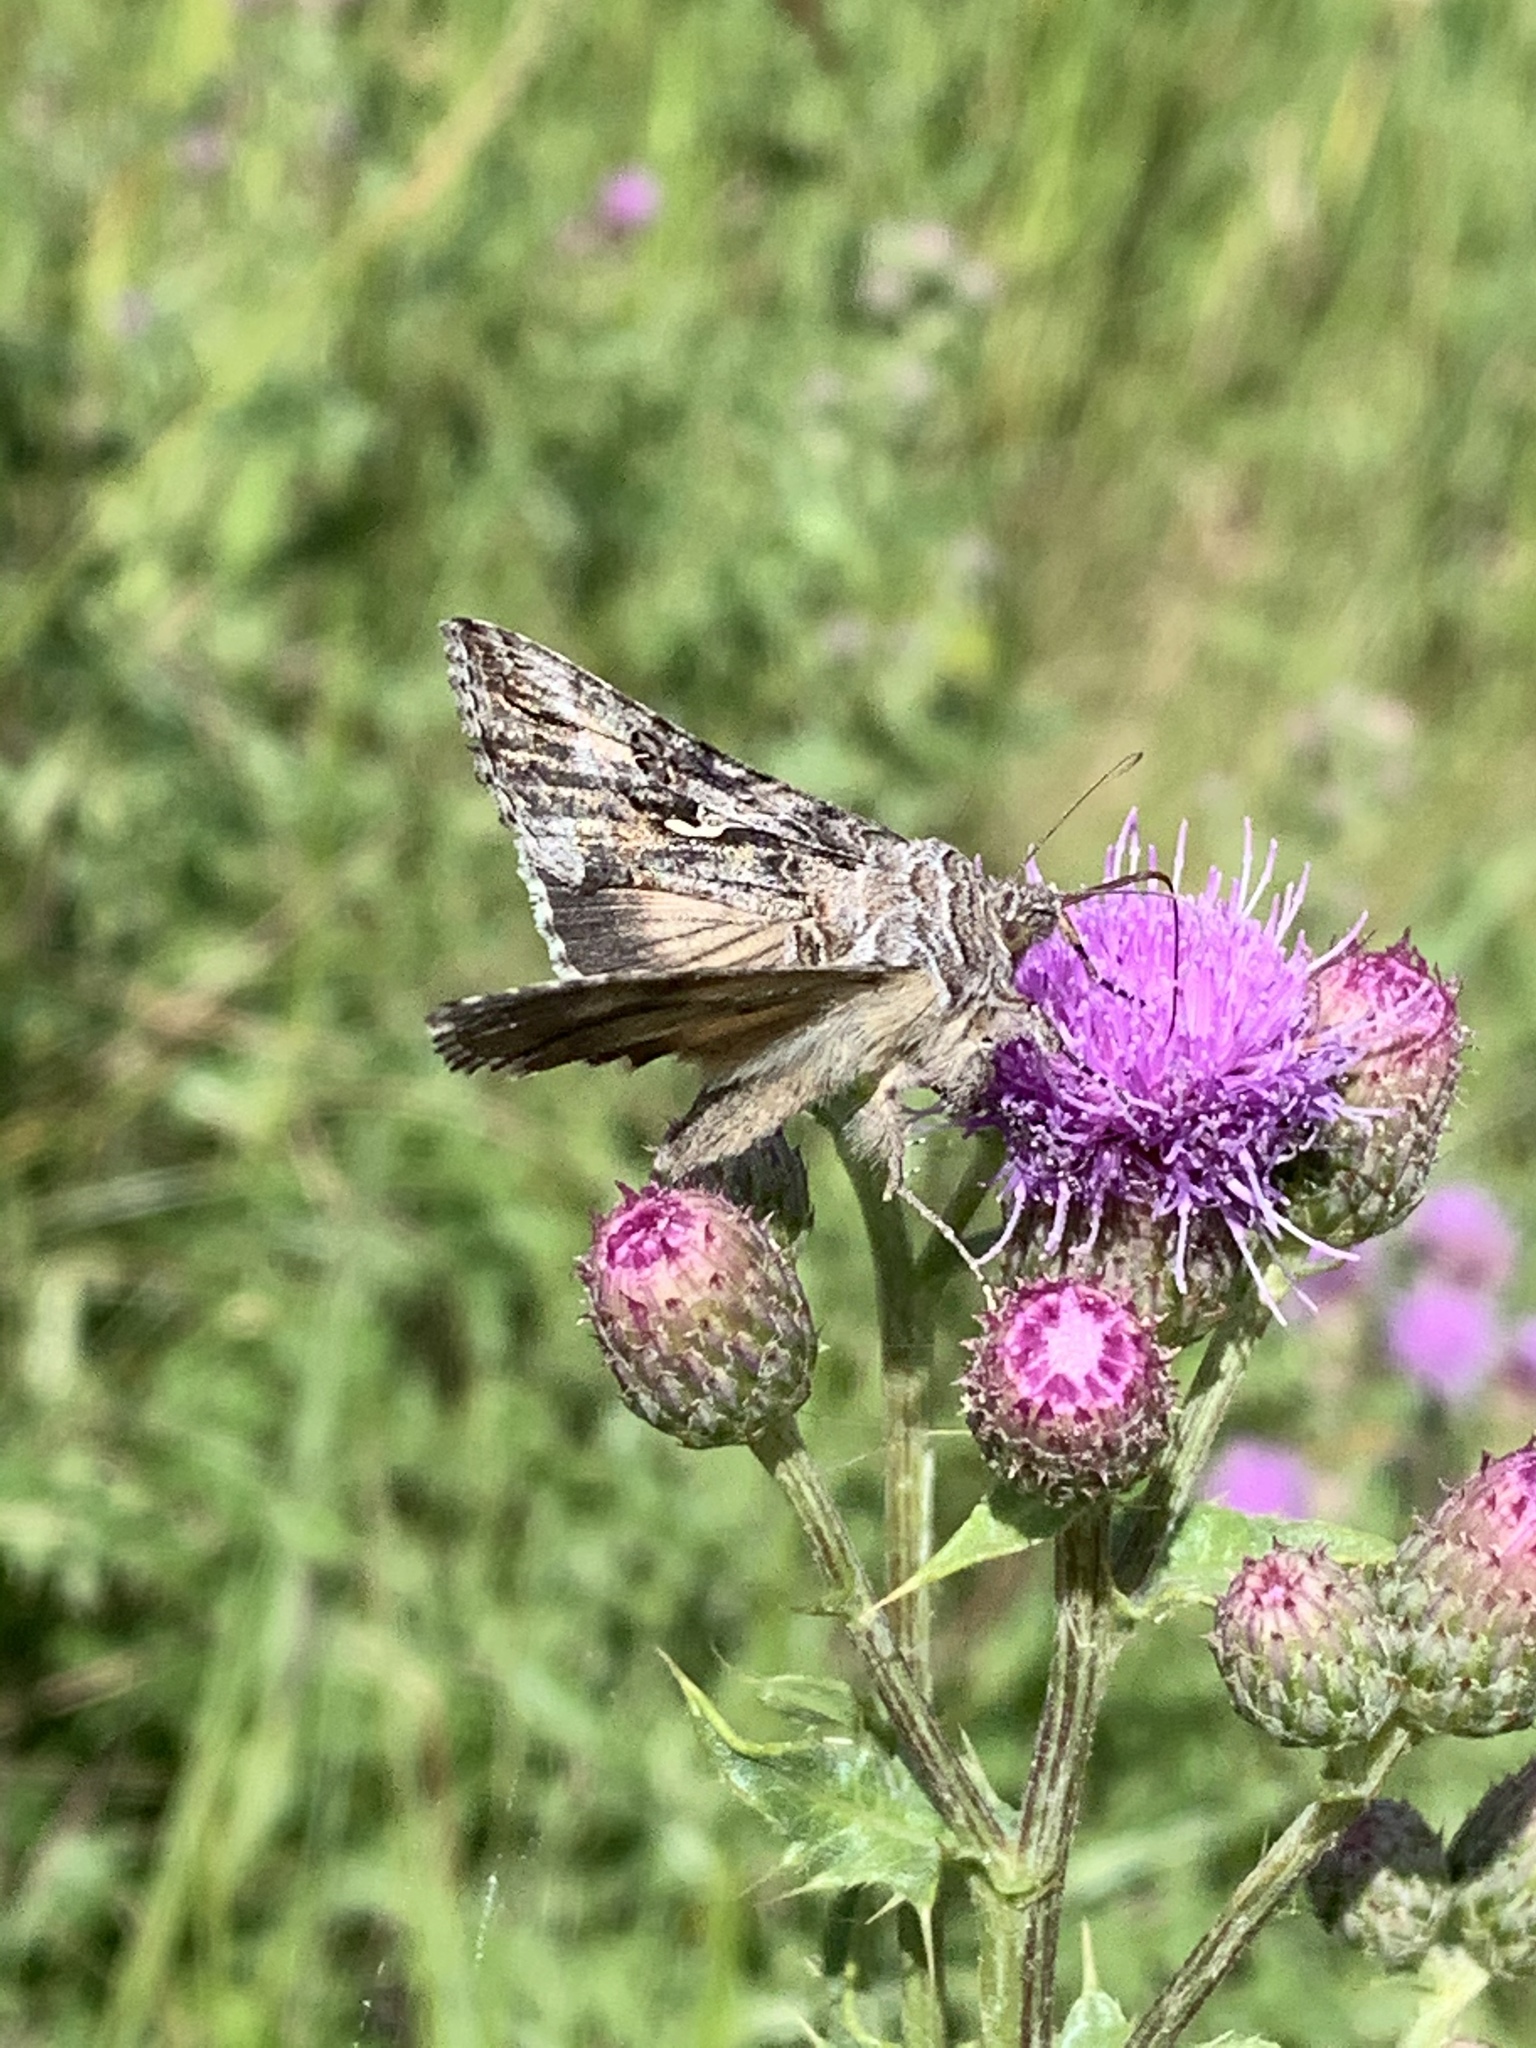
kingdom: Animalia
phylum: Arthropoda
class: Insecta
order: Lepidoptera
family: Noctuidae
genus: Autographa
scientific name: Autographa californica
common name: Alfalfa looper
